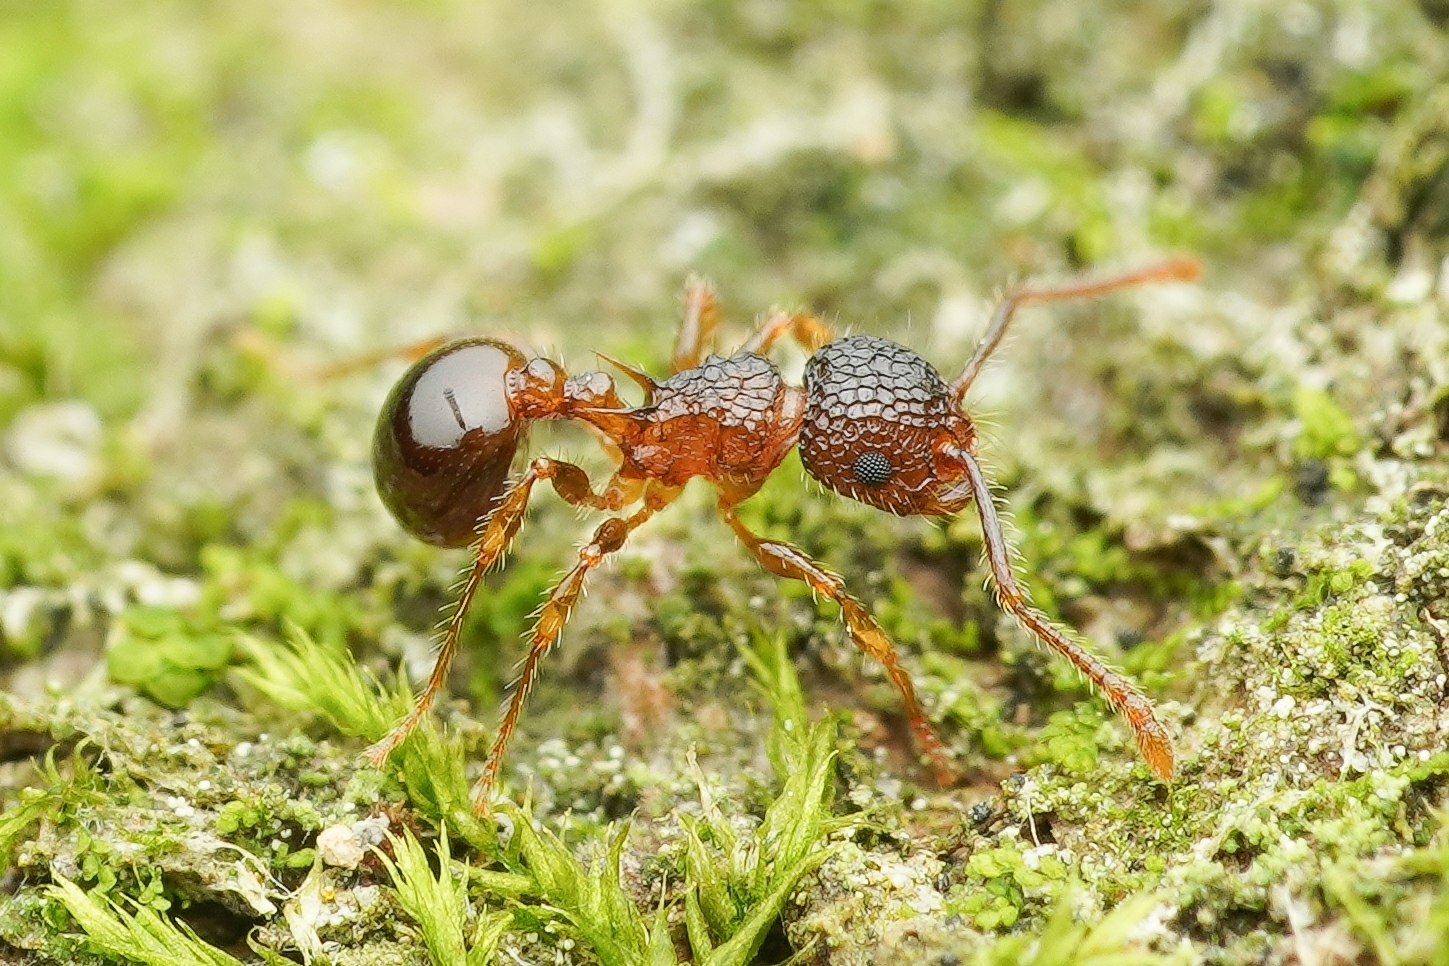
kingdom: Animalia
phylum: Arthropoda
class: Insecta
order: Hymenoptera
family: Formicidae
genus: Pristomyrmex
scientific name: Pristomyrmex punctatus
